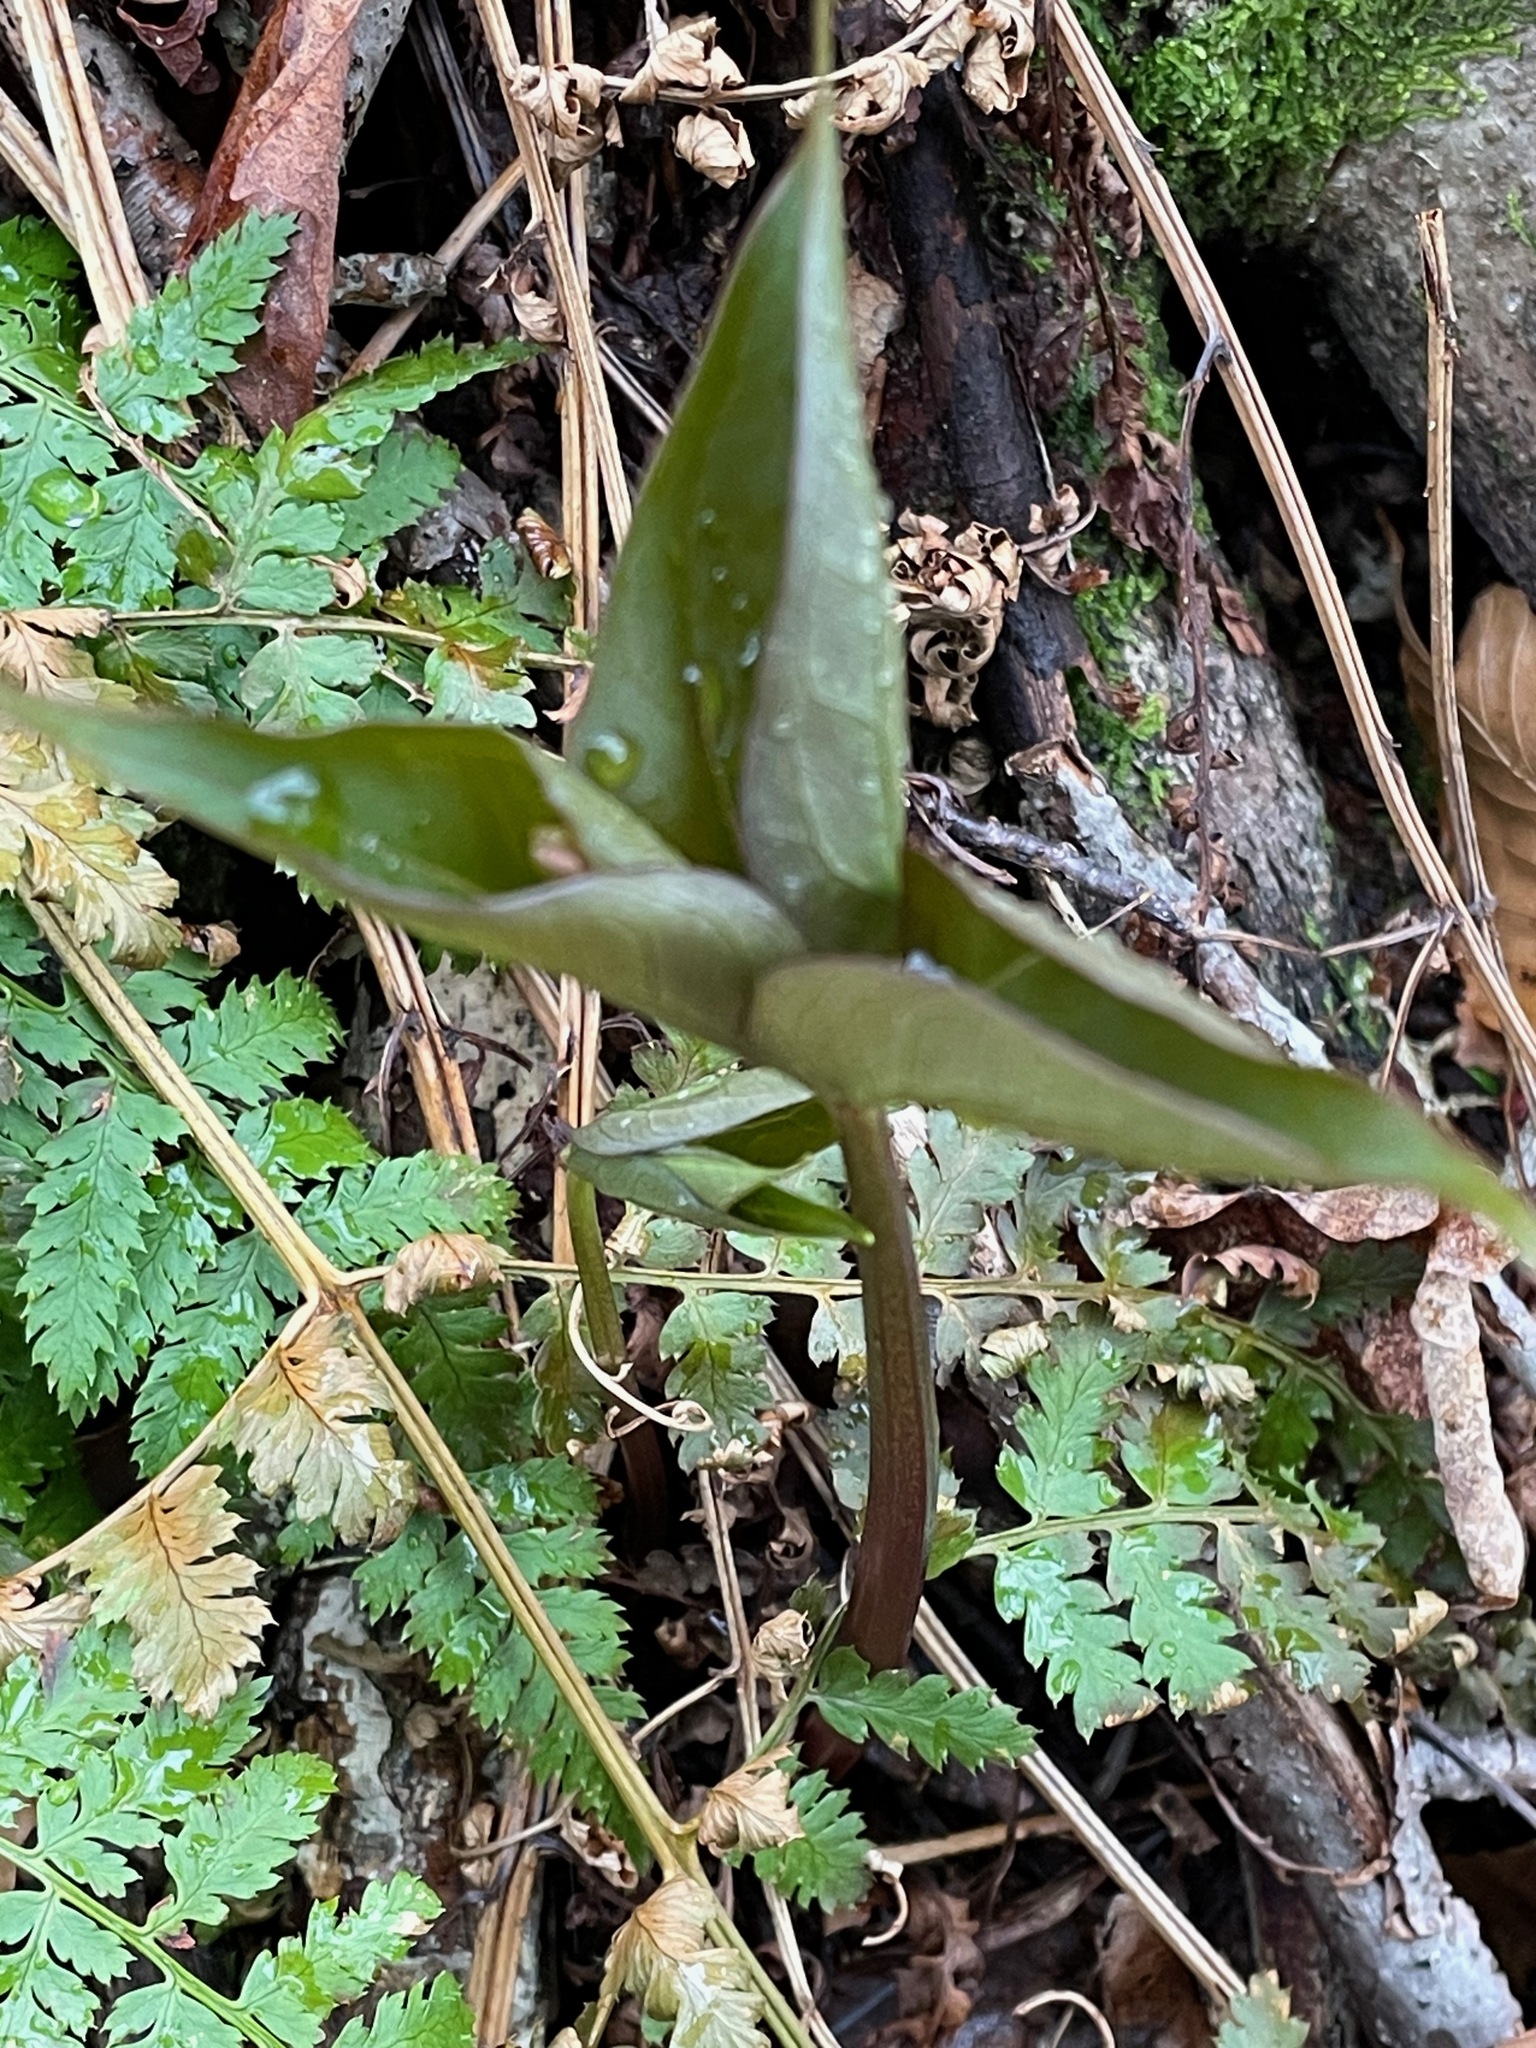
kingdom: Plantae
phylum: Tracheophyta
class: Liliopsida
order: Liliales
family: Melanthiaceae
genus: Trillium
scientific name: Trillium undulatum
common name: Paint trillium
